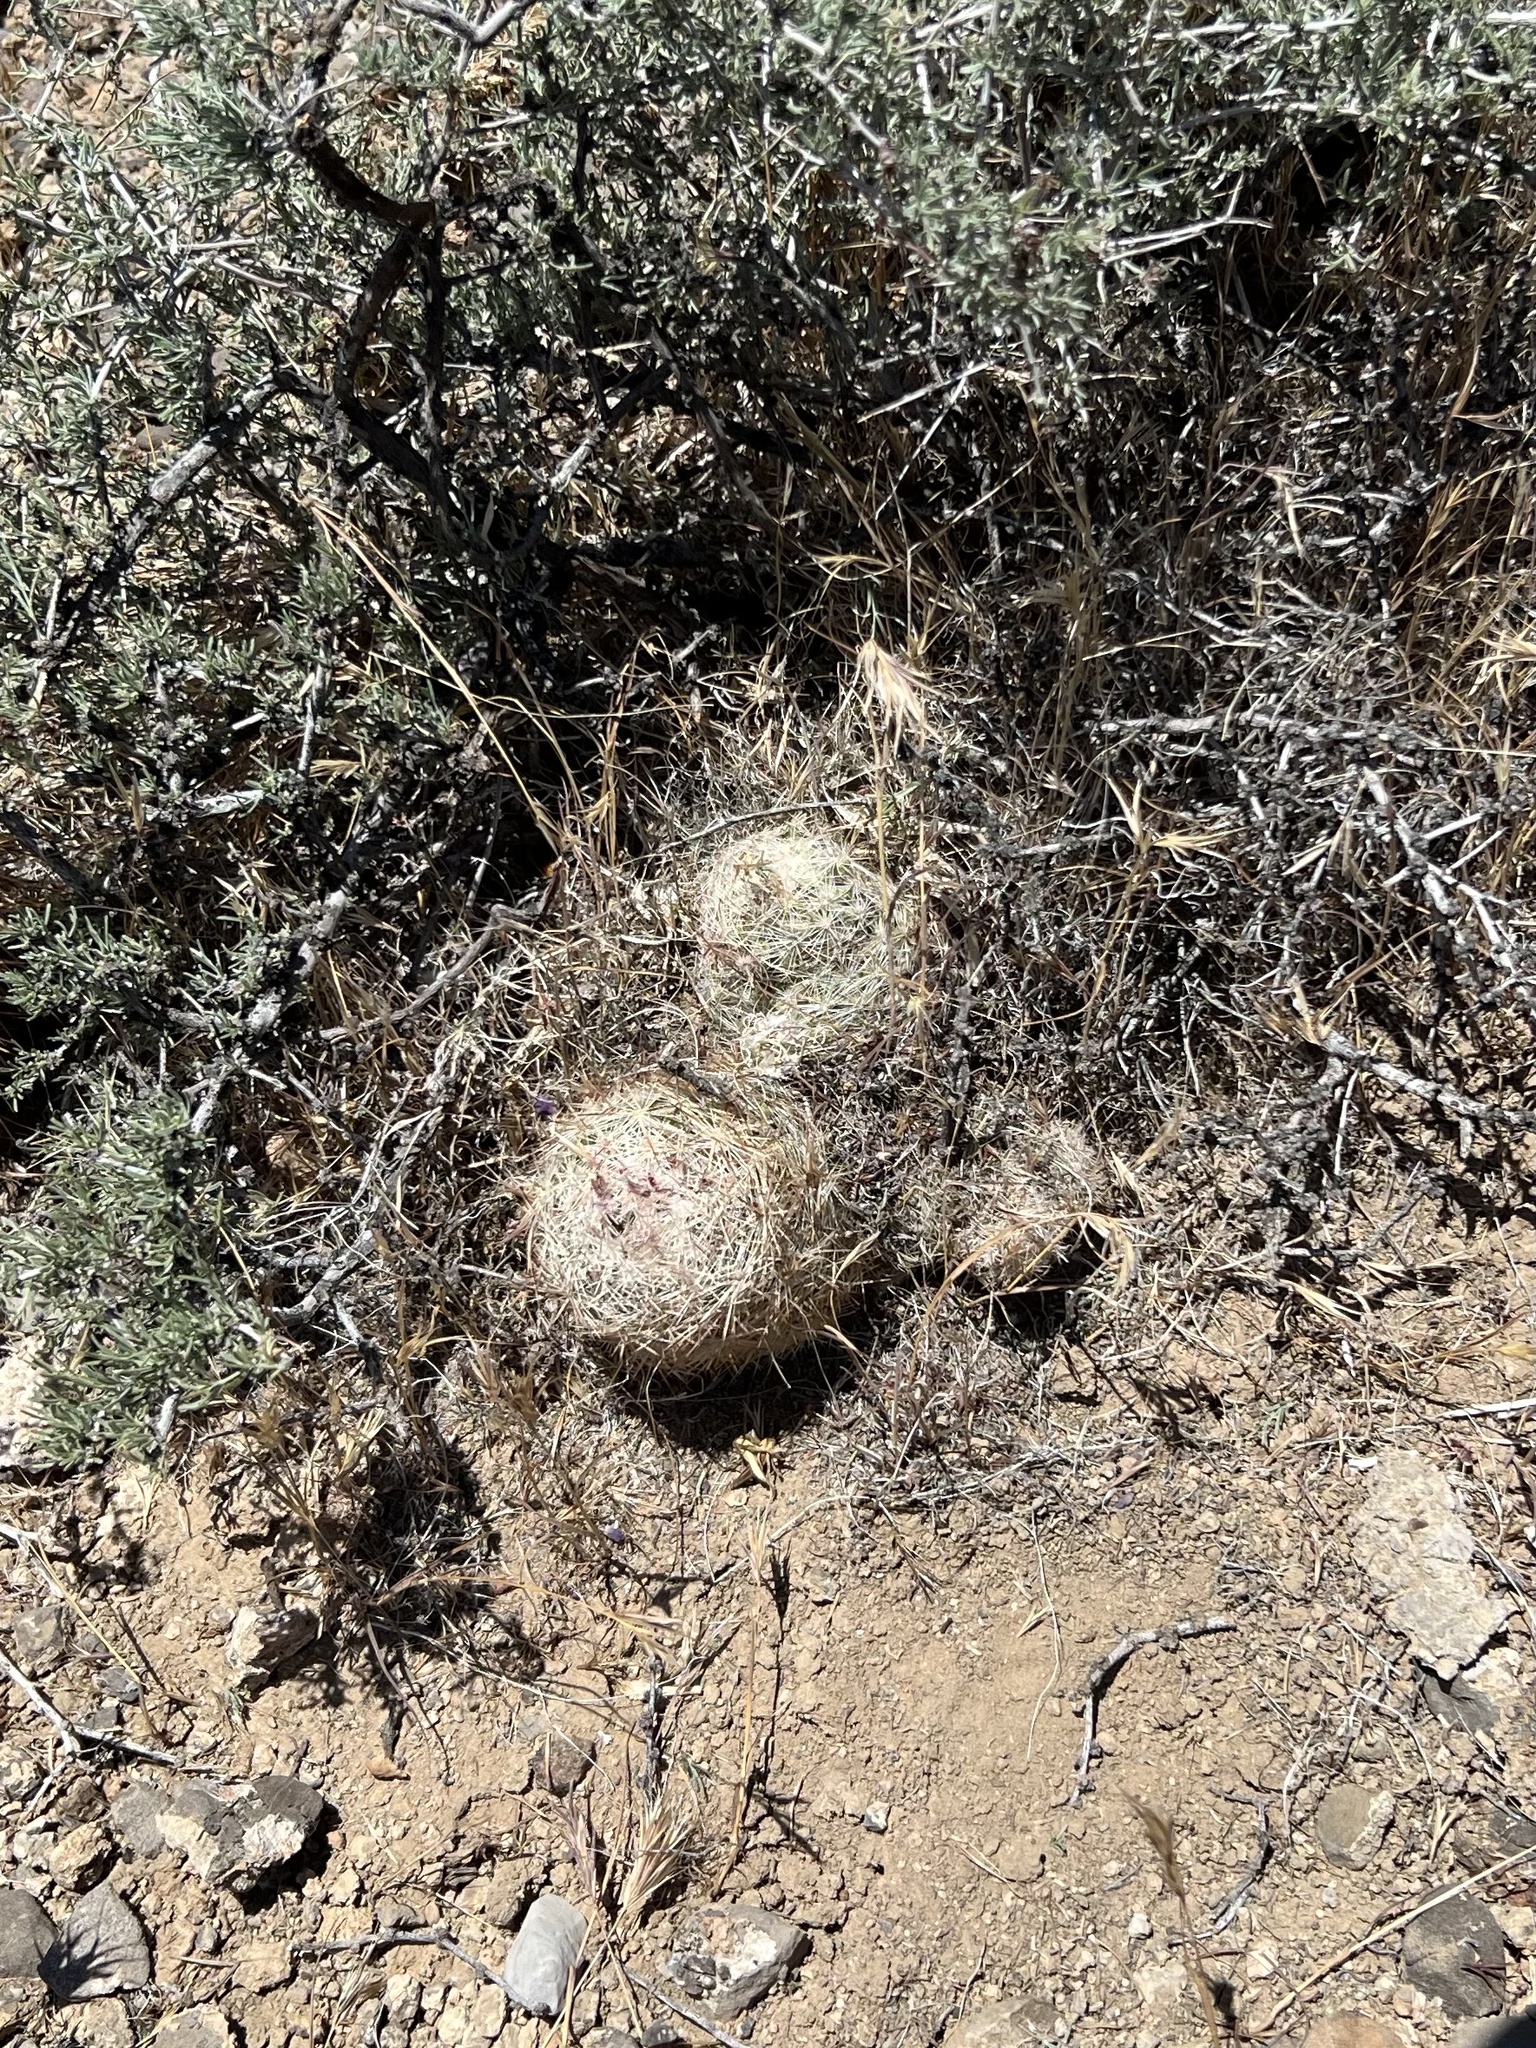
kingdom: Plantae
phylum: Tracheophyta
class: Magnoliopsida
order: Caryophyllales
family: Cactaceae
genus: Pelecyphora
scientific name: Pelecyphora dasyacantha
